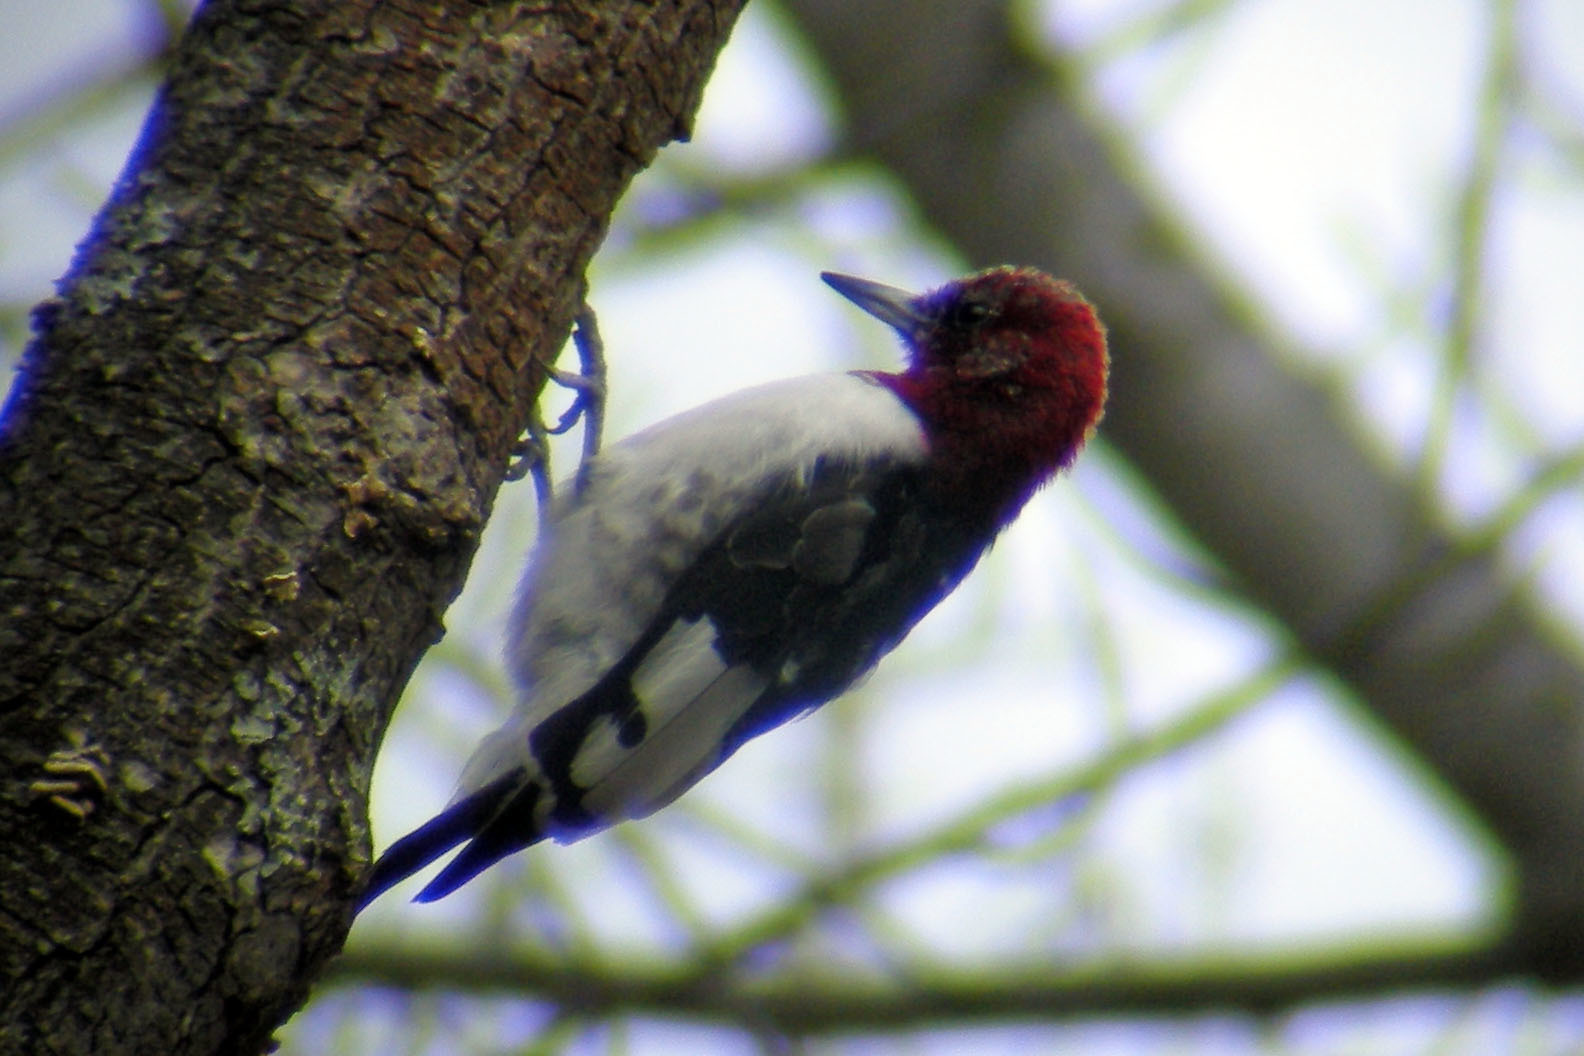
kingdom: Animalia
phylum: Chordata
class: Aves
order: Piciformes
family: Picidae
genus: Melanerpes
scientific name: Melanerpes erythrocephalus
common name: Red-headed woodpecker
